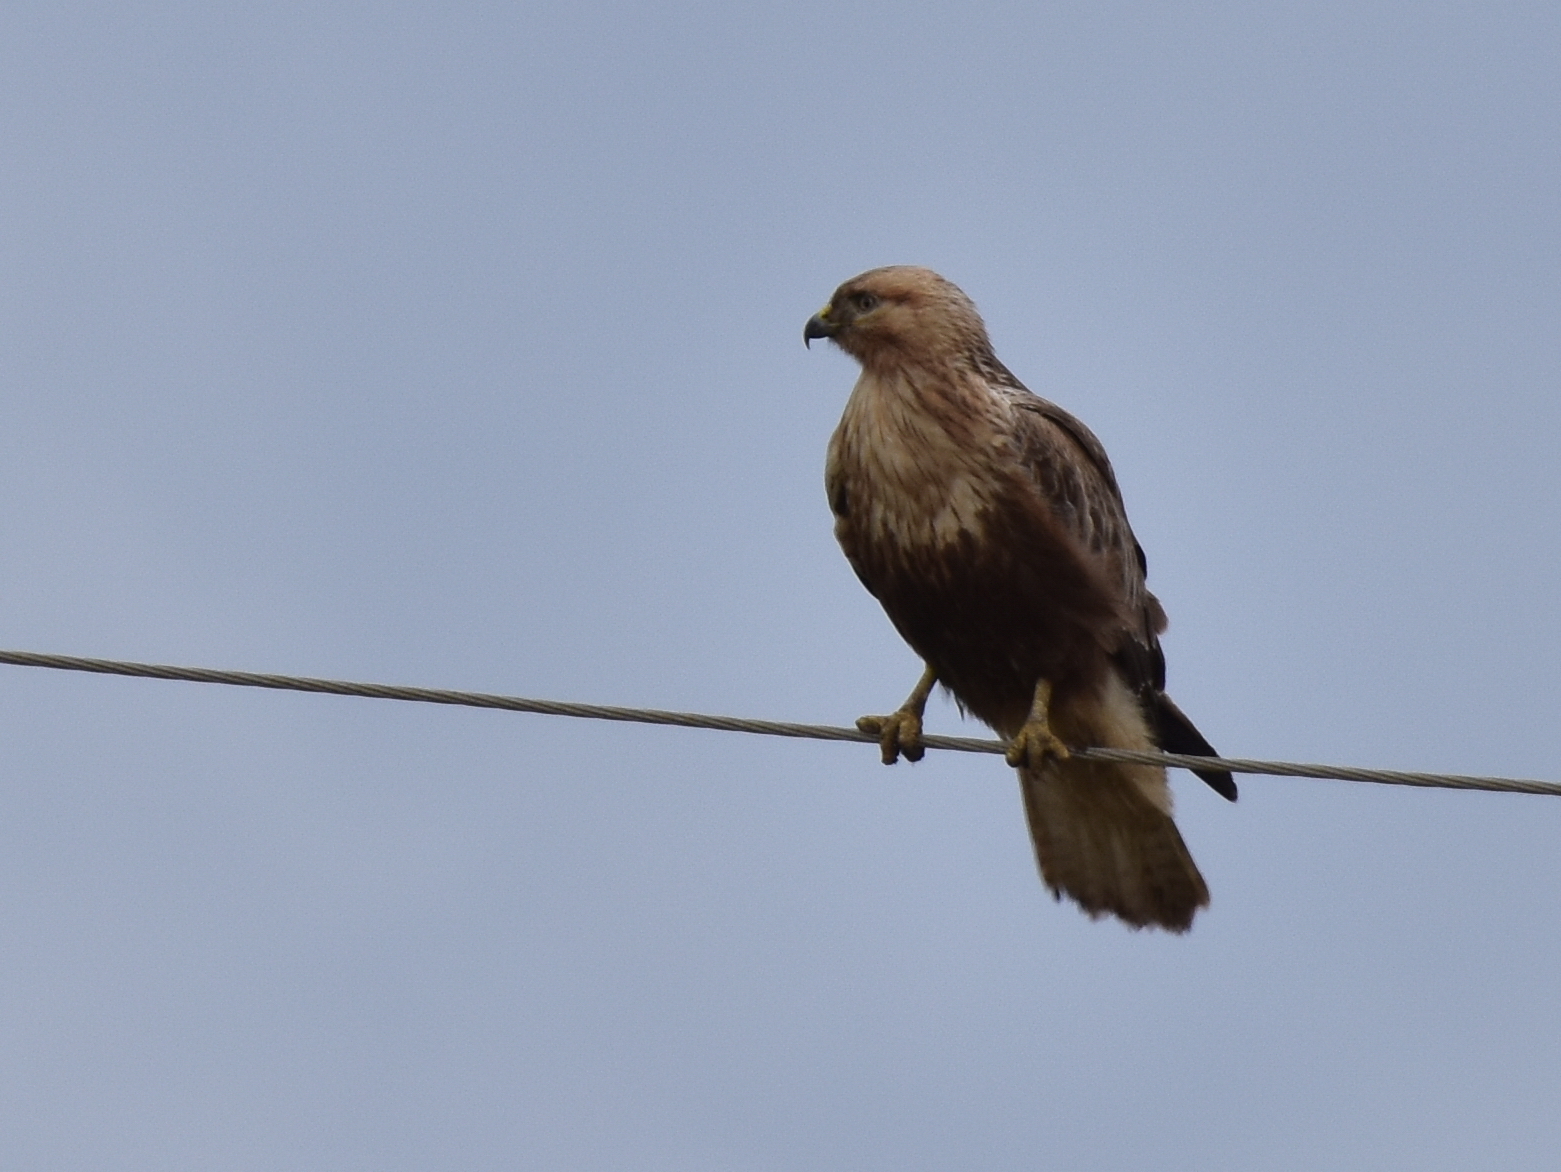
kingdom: Animalia
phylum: Chordata
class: Aves
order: Accipitriformes
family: Accipitridae
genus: Buteo
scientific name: Buteo rufinus
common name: Long-legged buzzard
